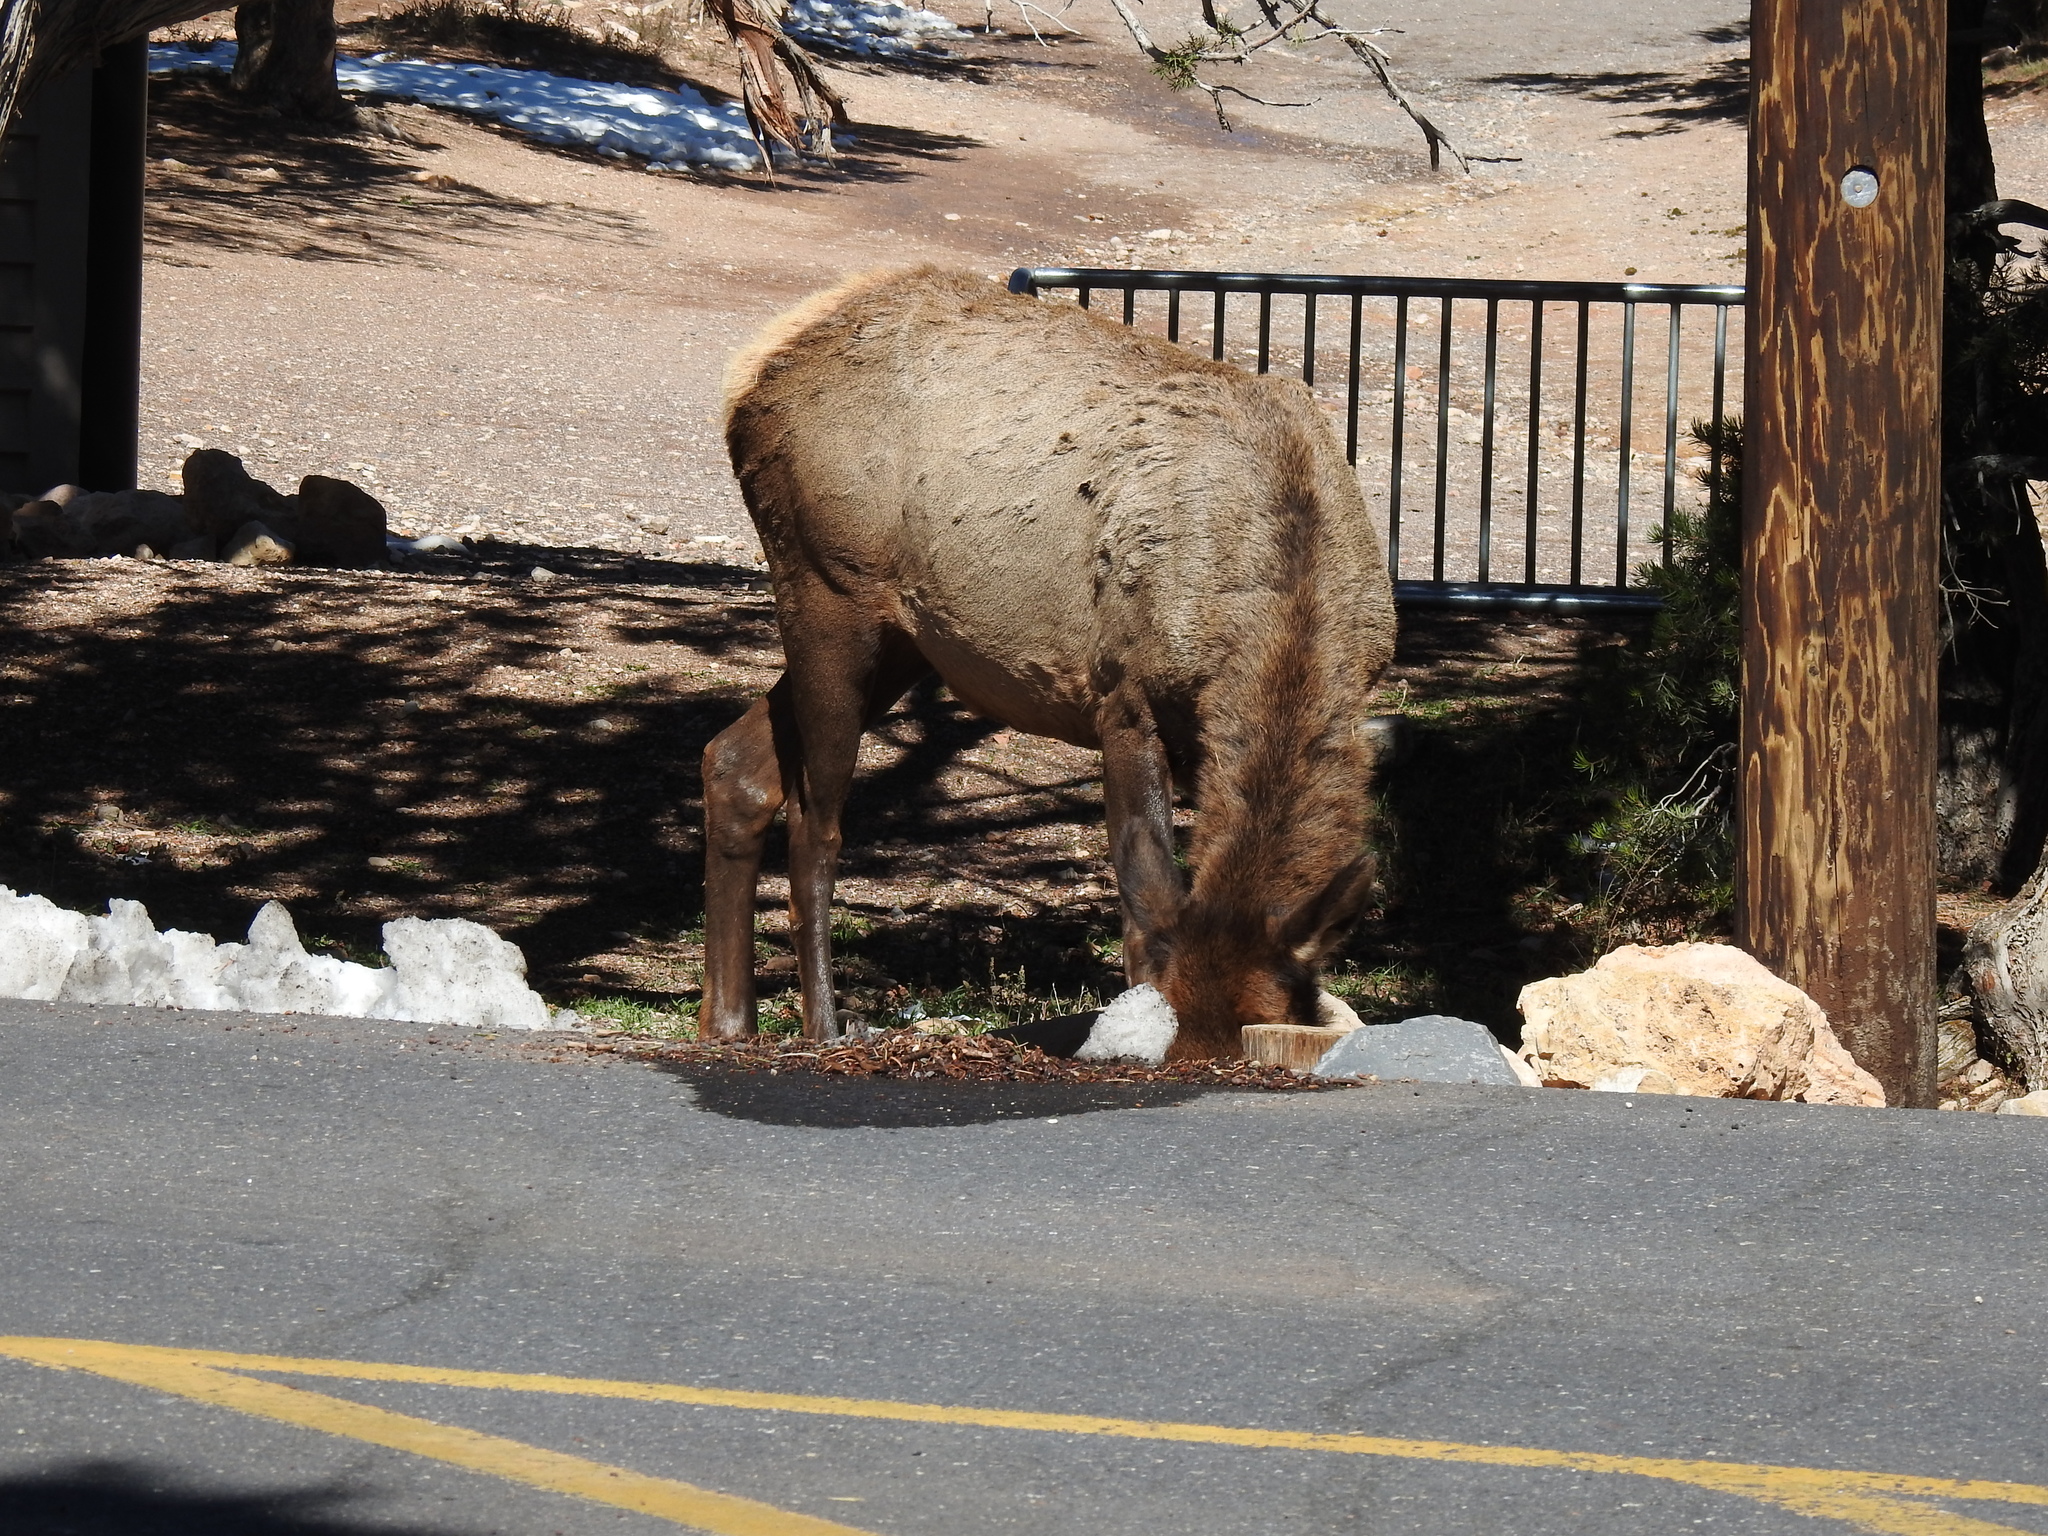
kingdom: Animalia
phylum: Chordata
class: Mammalia
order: Artiodactyla
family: Cervidae
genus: Cervus
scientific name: Cervus elaphus
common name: Red deer
